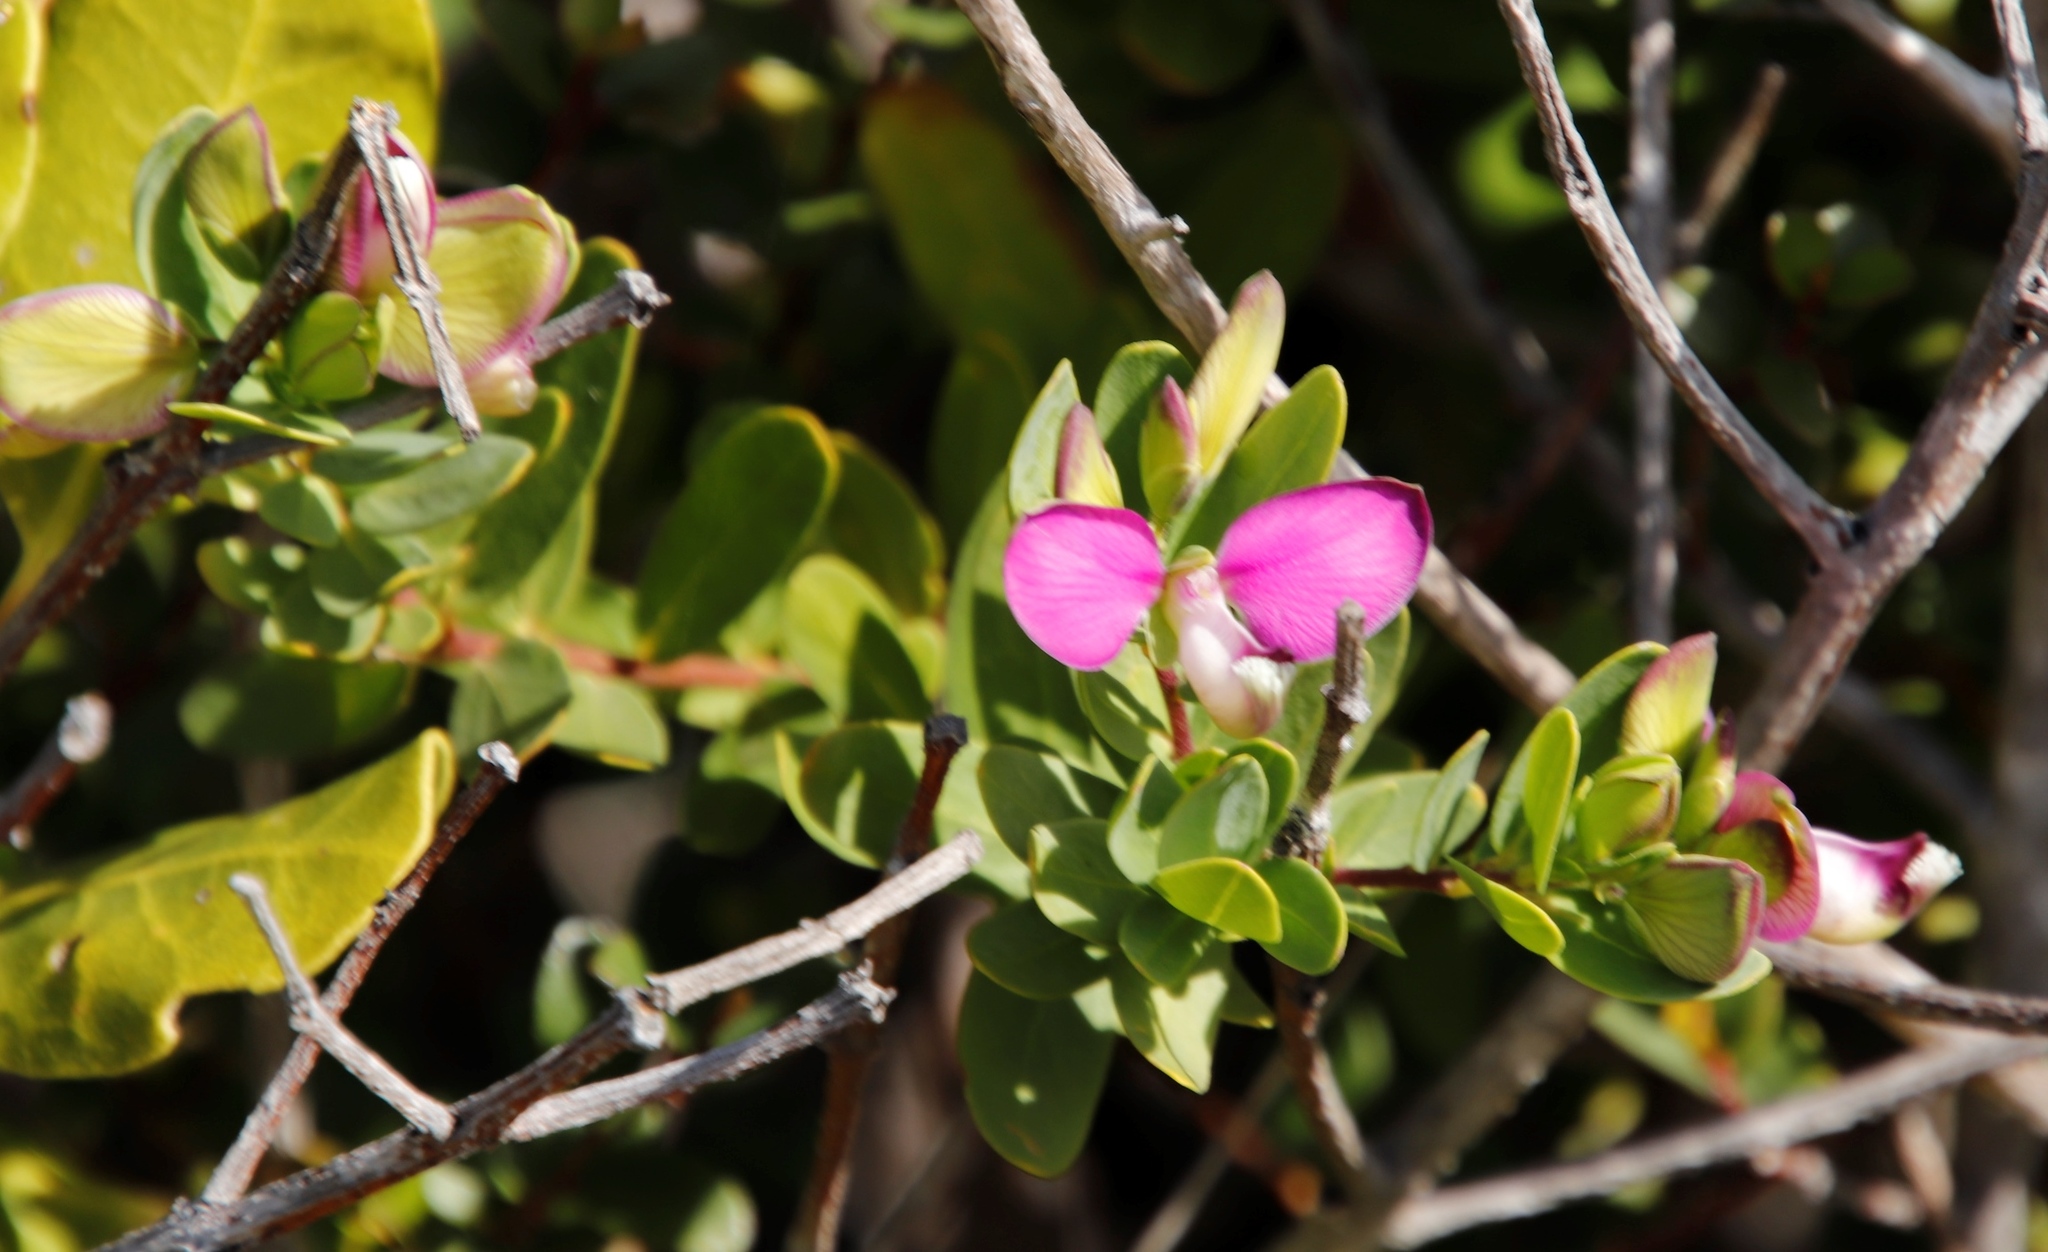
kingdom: Plantae
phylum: Tracheophyta
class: Magnoliopsida
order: Fabales
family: Polygalaceae
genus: Polygala
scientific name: Polygala myrtifolia
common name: Myrtle-leaf milkwort
